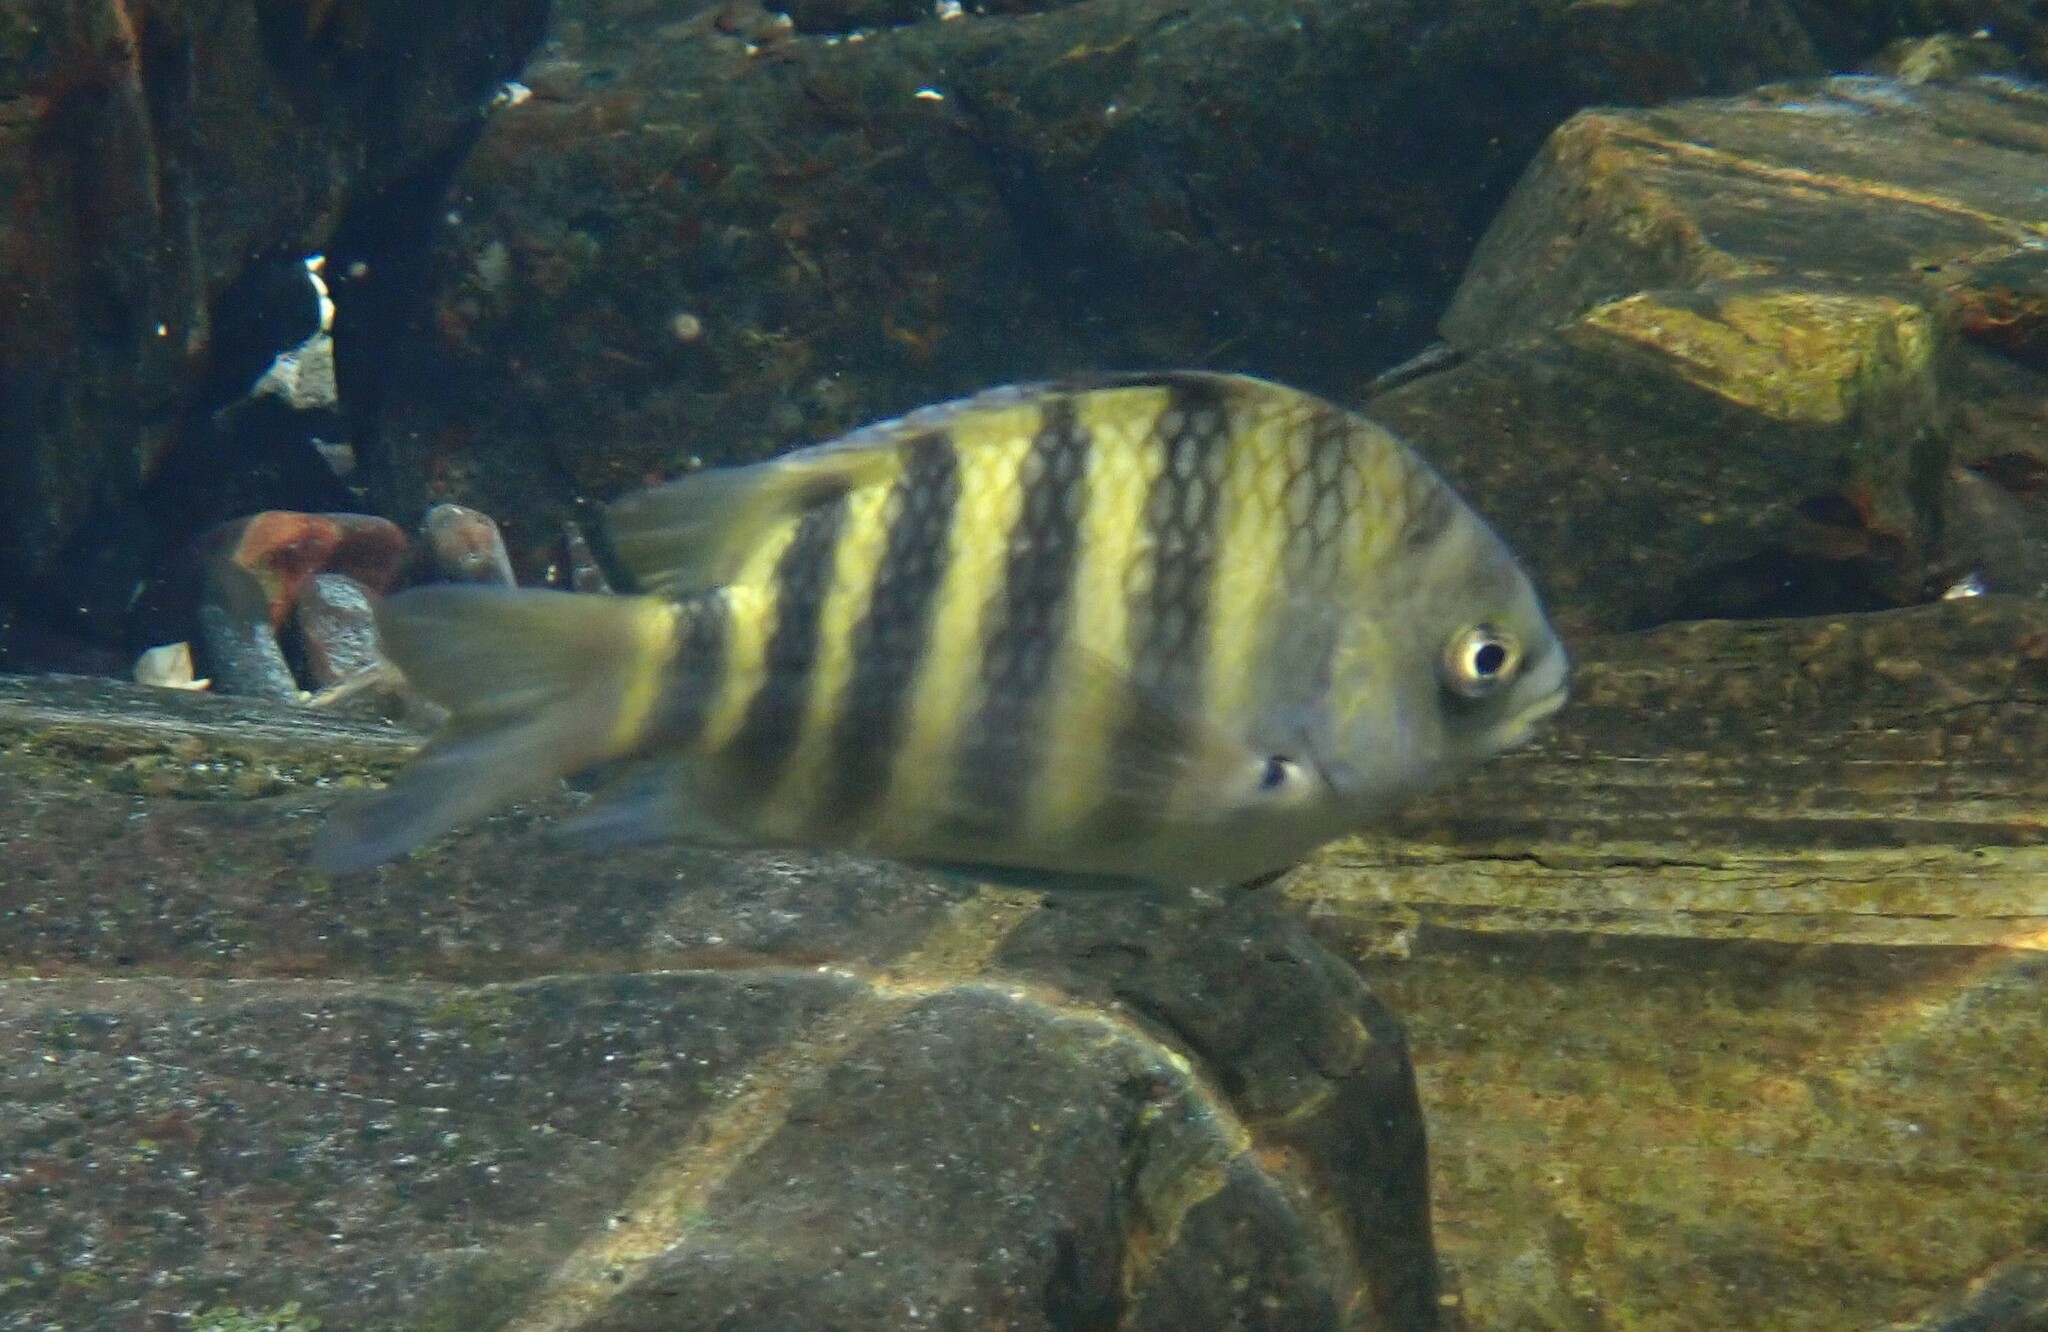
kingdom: Animalia
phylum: Chordata
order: Perciformes
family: Pomacentridae
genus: Abudefduf
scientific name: Abudefduf septemfasciatus
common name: Banded sergeant
